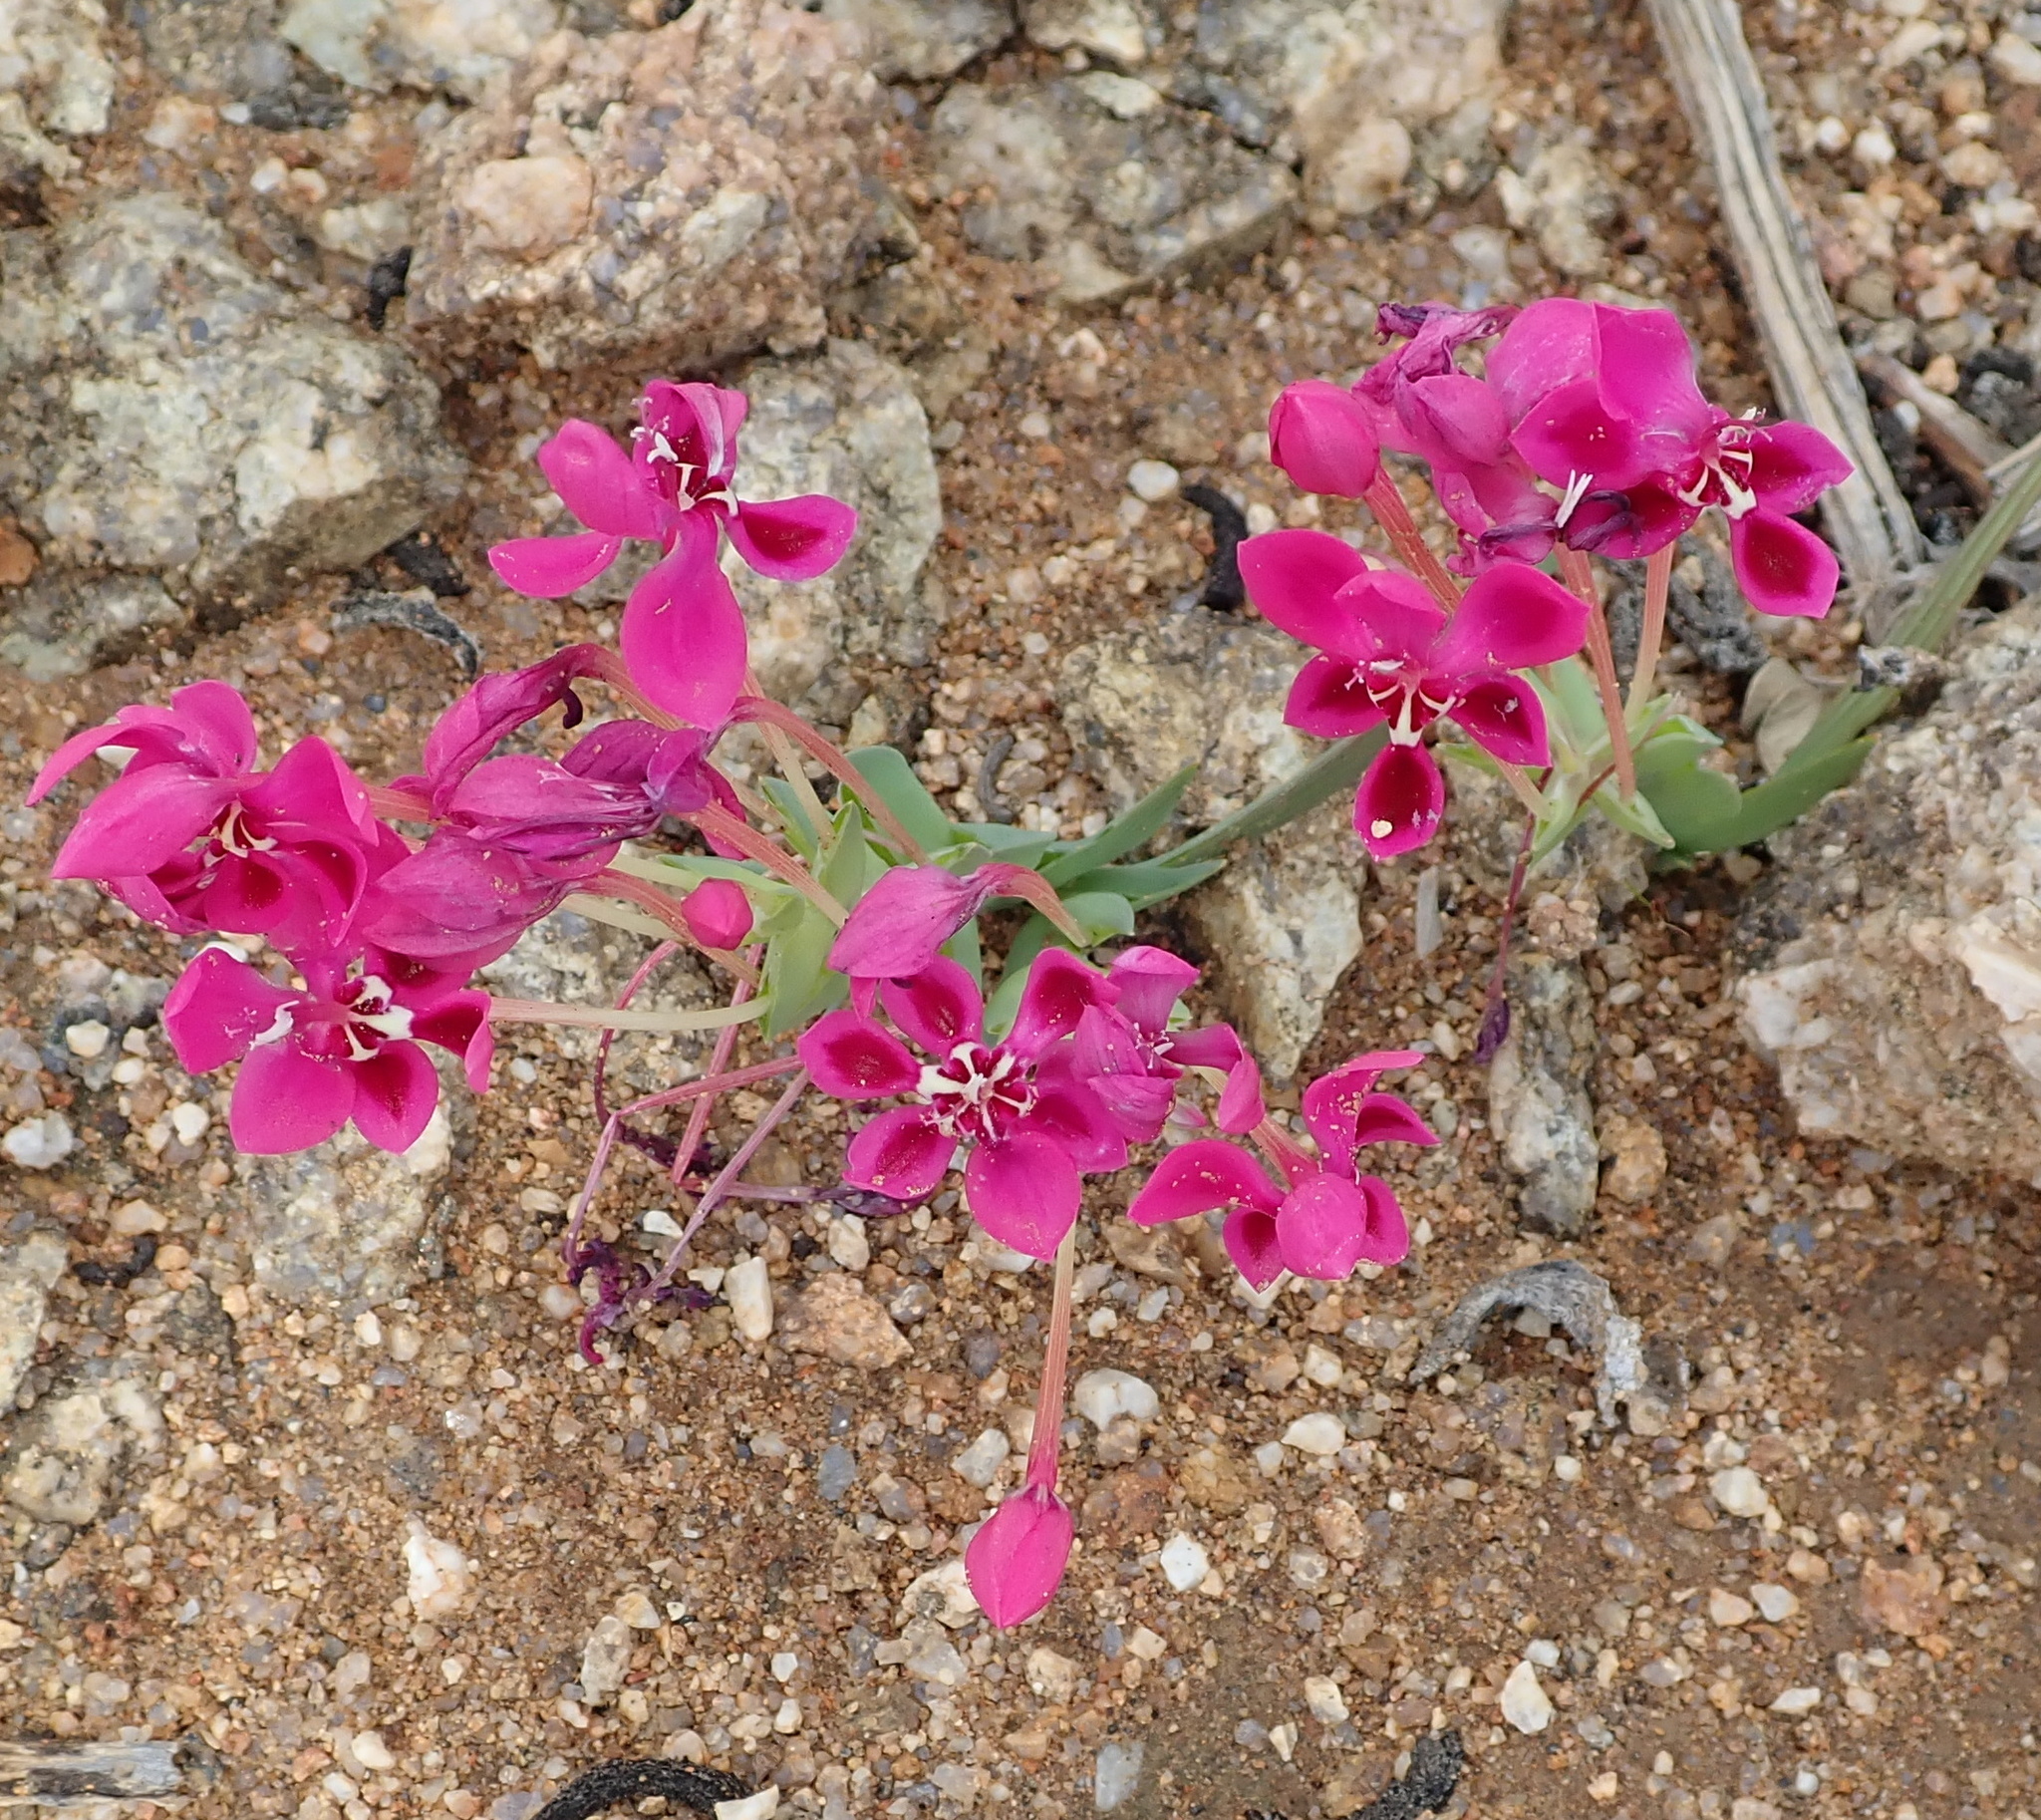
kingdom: Plantae
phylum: Tracheophyta
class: Liliopsida
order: Asparagales
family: Iridaceae
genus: Lapeirousia
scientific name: Lapeirousia silenoides
